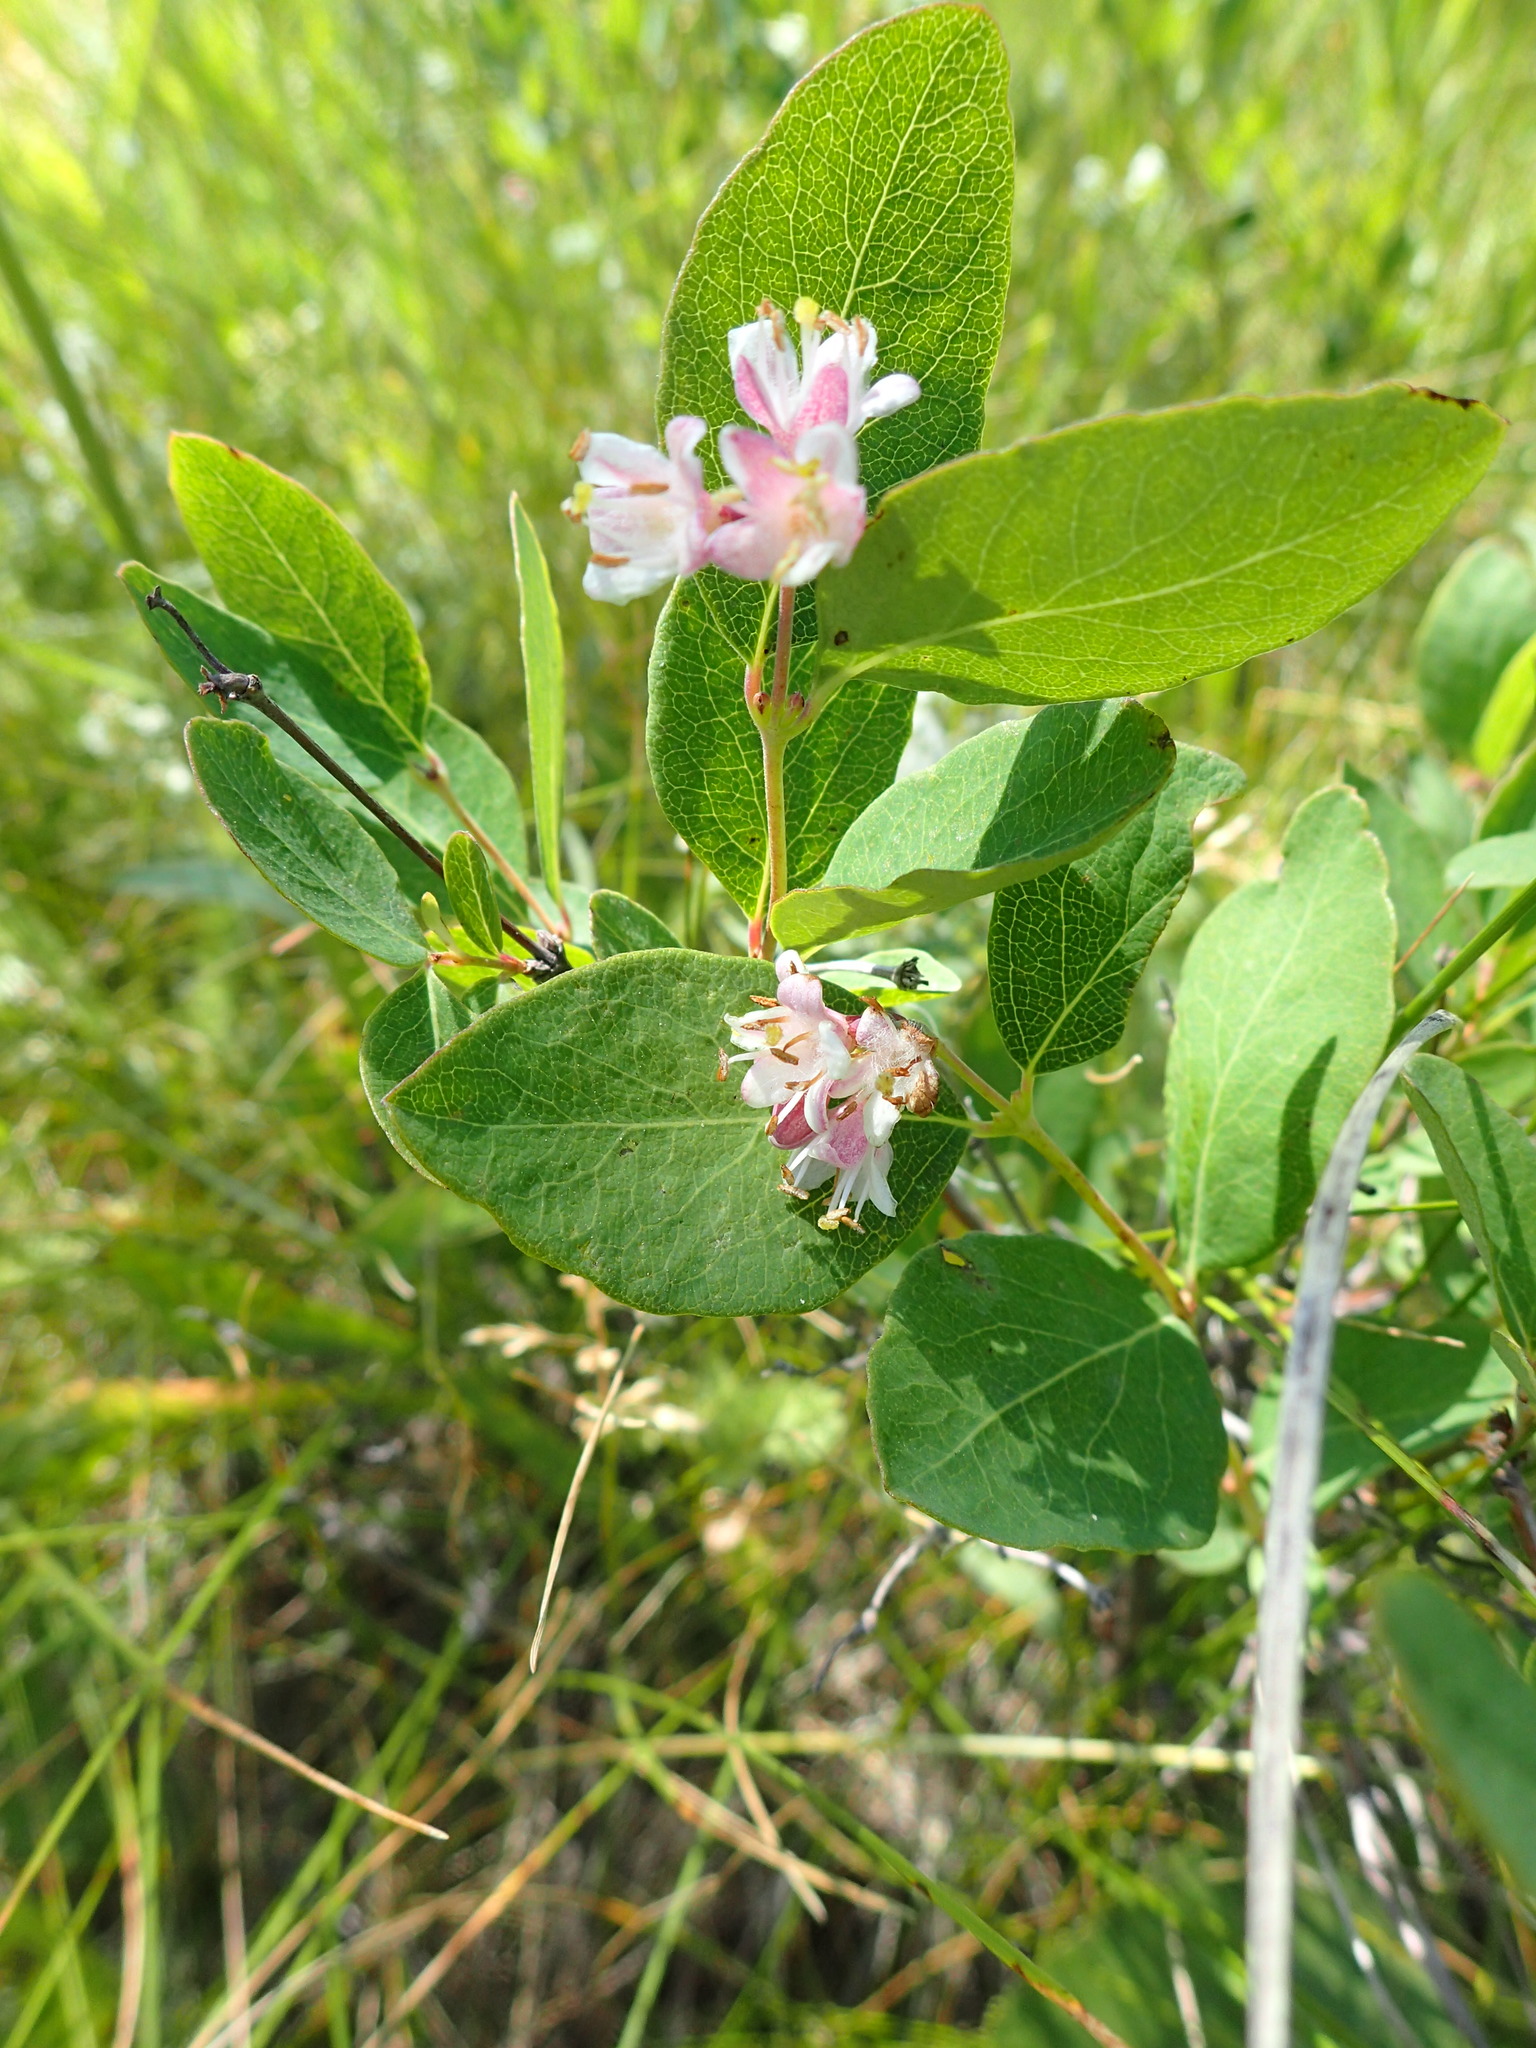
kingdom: Plantae
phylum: Tracheophyta
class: Magnoliopsida
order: Dipsacales
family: Caprifoliaceae
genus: Symphoricarpos
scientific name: Symphoricarpos occidentalis
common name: Wolfberry
